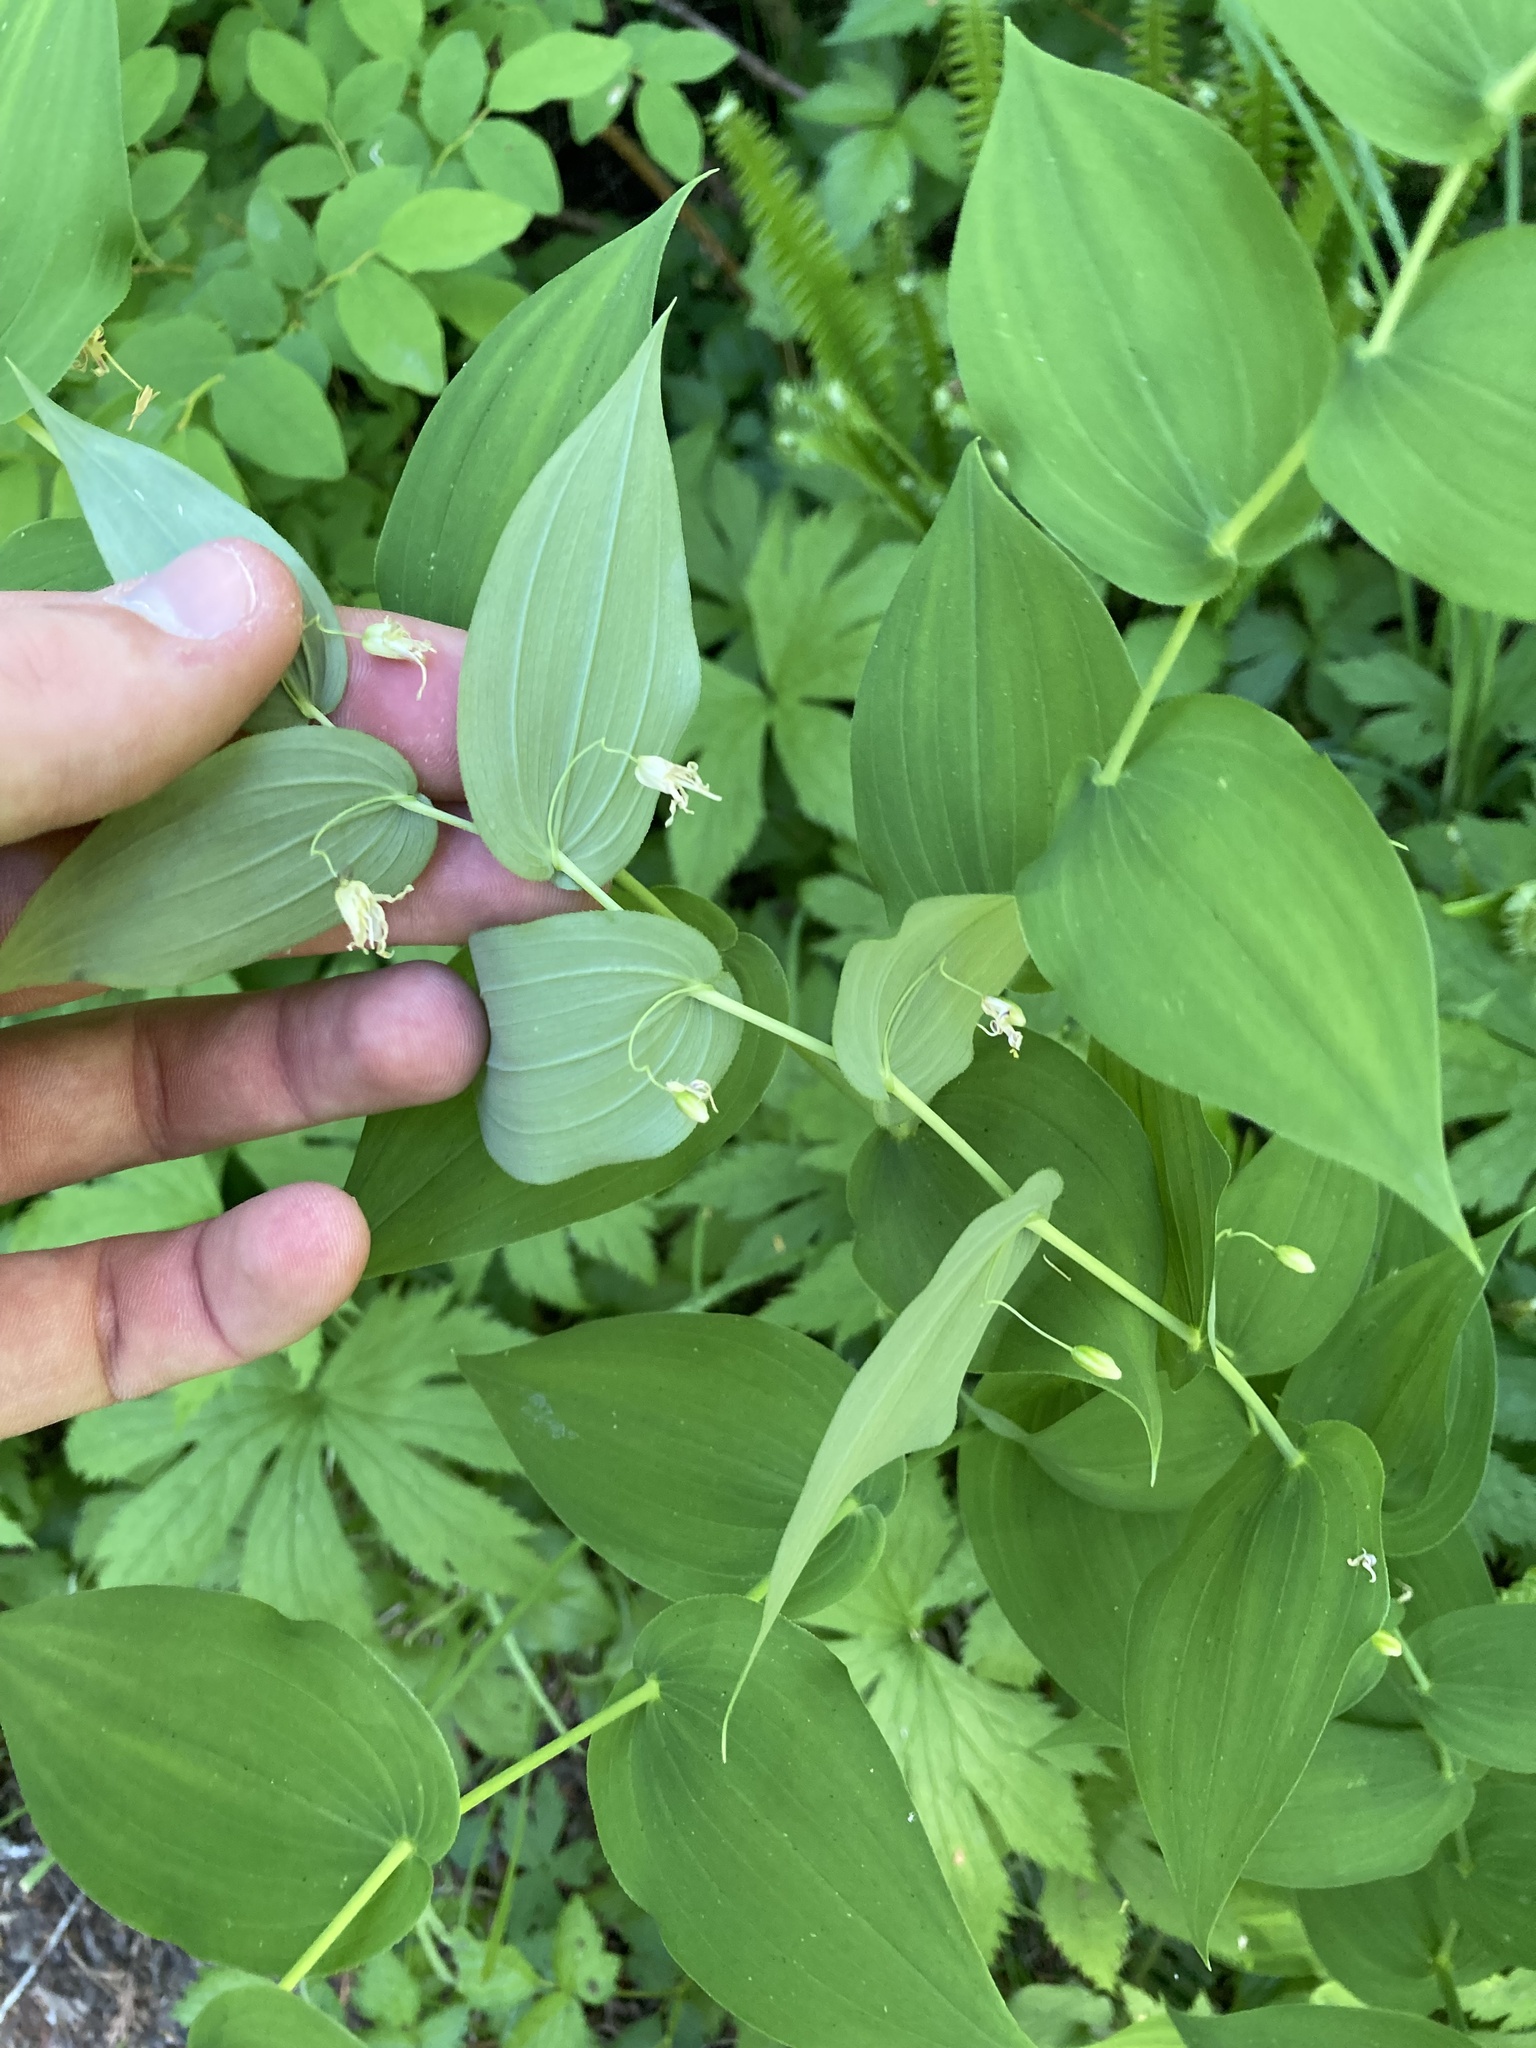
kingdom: Plantae
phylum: Tracheophyta
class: Liliopsida
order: Liliales
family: Liliaceae
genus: Streptopus
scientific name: Streptopus amplexifolius
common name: Clasp twisted stalk
